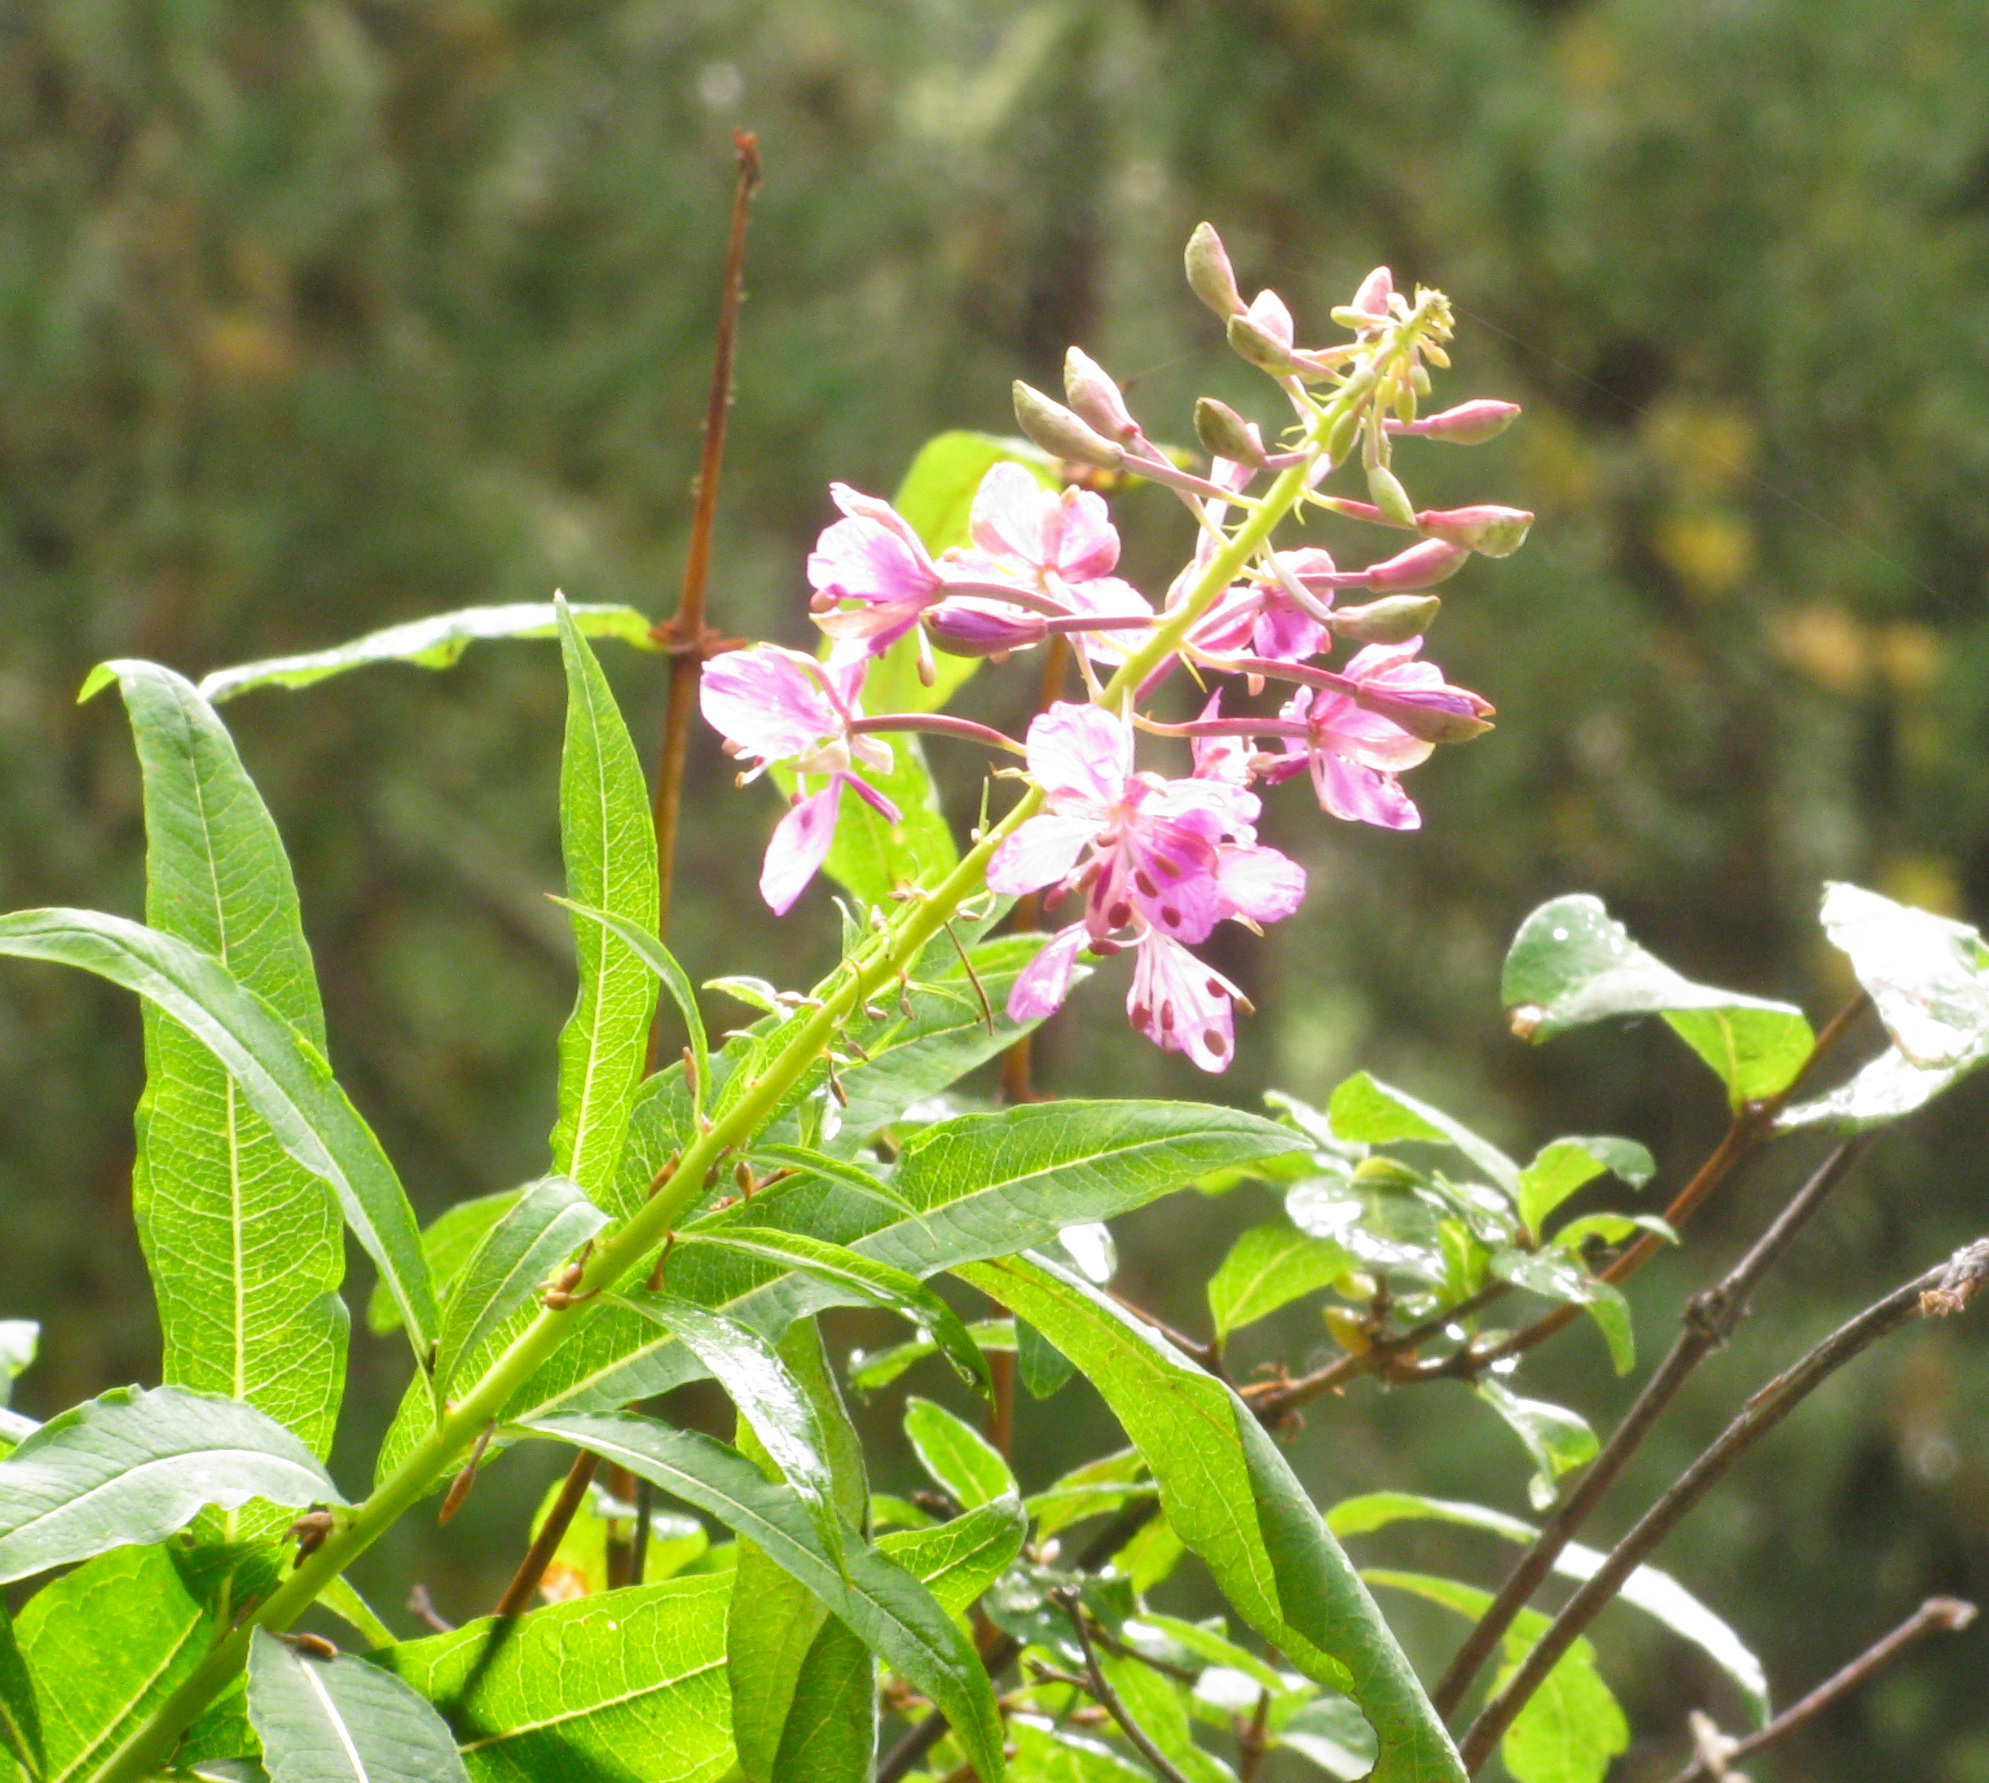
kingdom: Plantae
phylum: Tracheophyta
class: Magnoliopsida
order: Myrtales
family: Onagraceae
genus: Chamaenerion
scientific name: Chamaenerion angustifolium
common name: Fireweed
